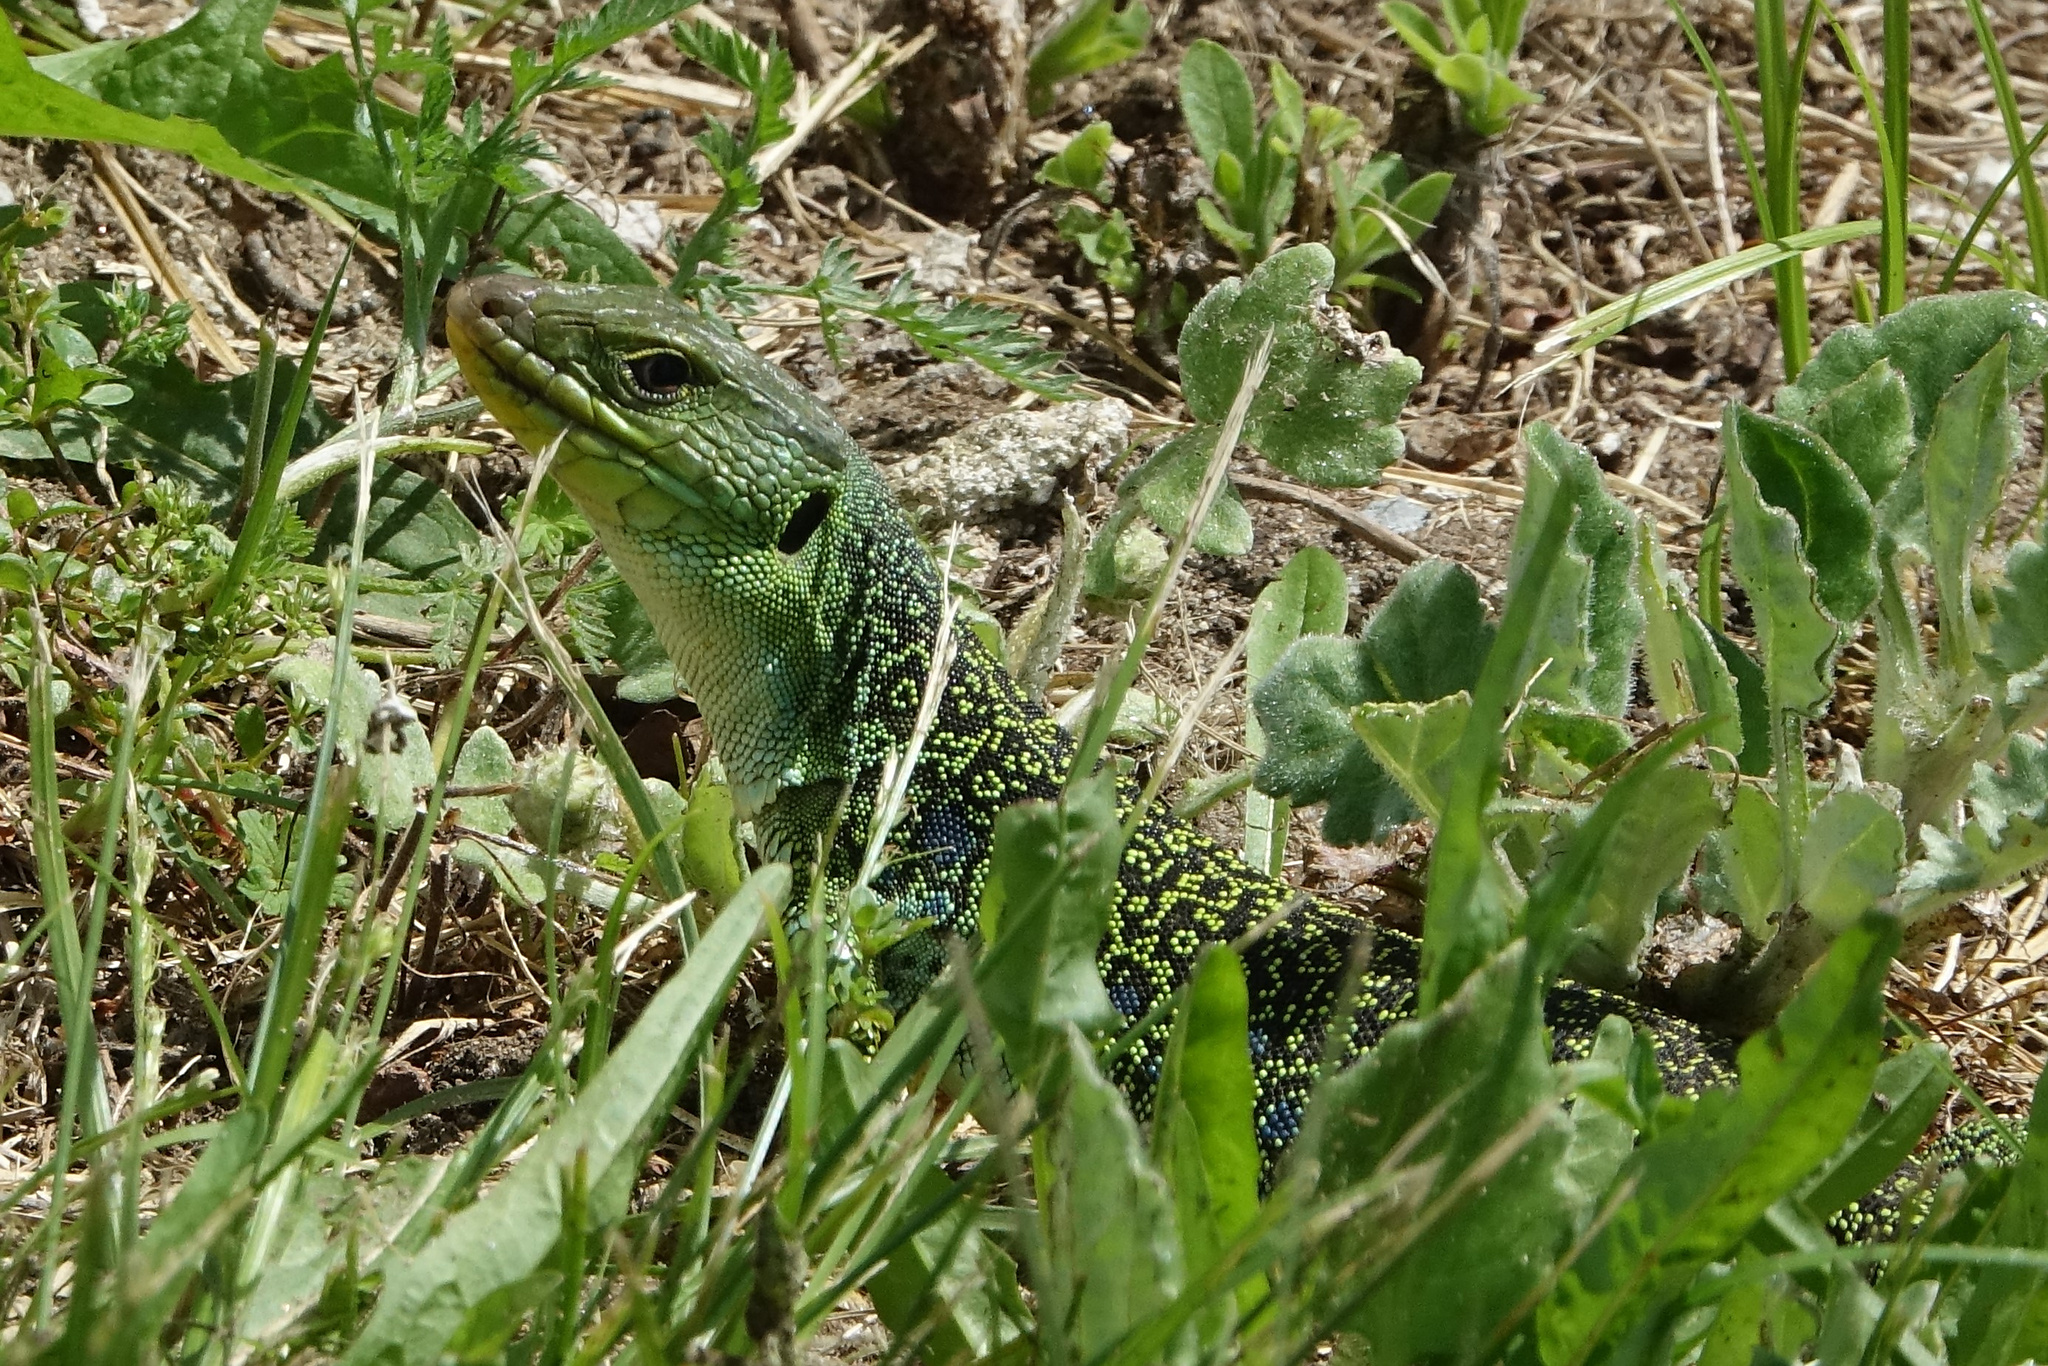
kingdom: Animalia
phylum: Chordata
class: Squamata
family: Lacertidae
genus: Timon
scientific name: Timon lepidus
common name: Ocellated lizard
